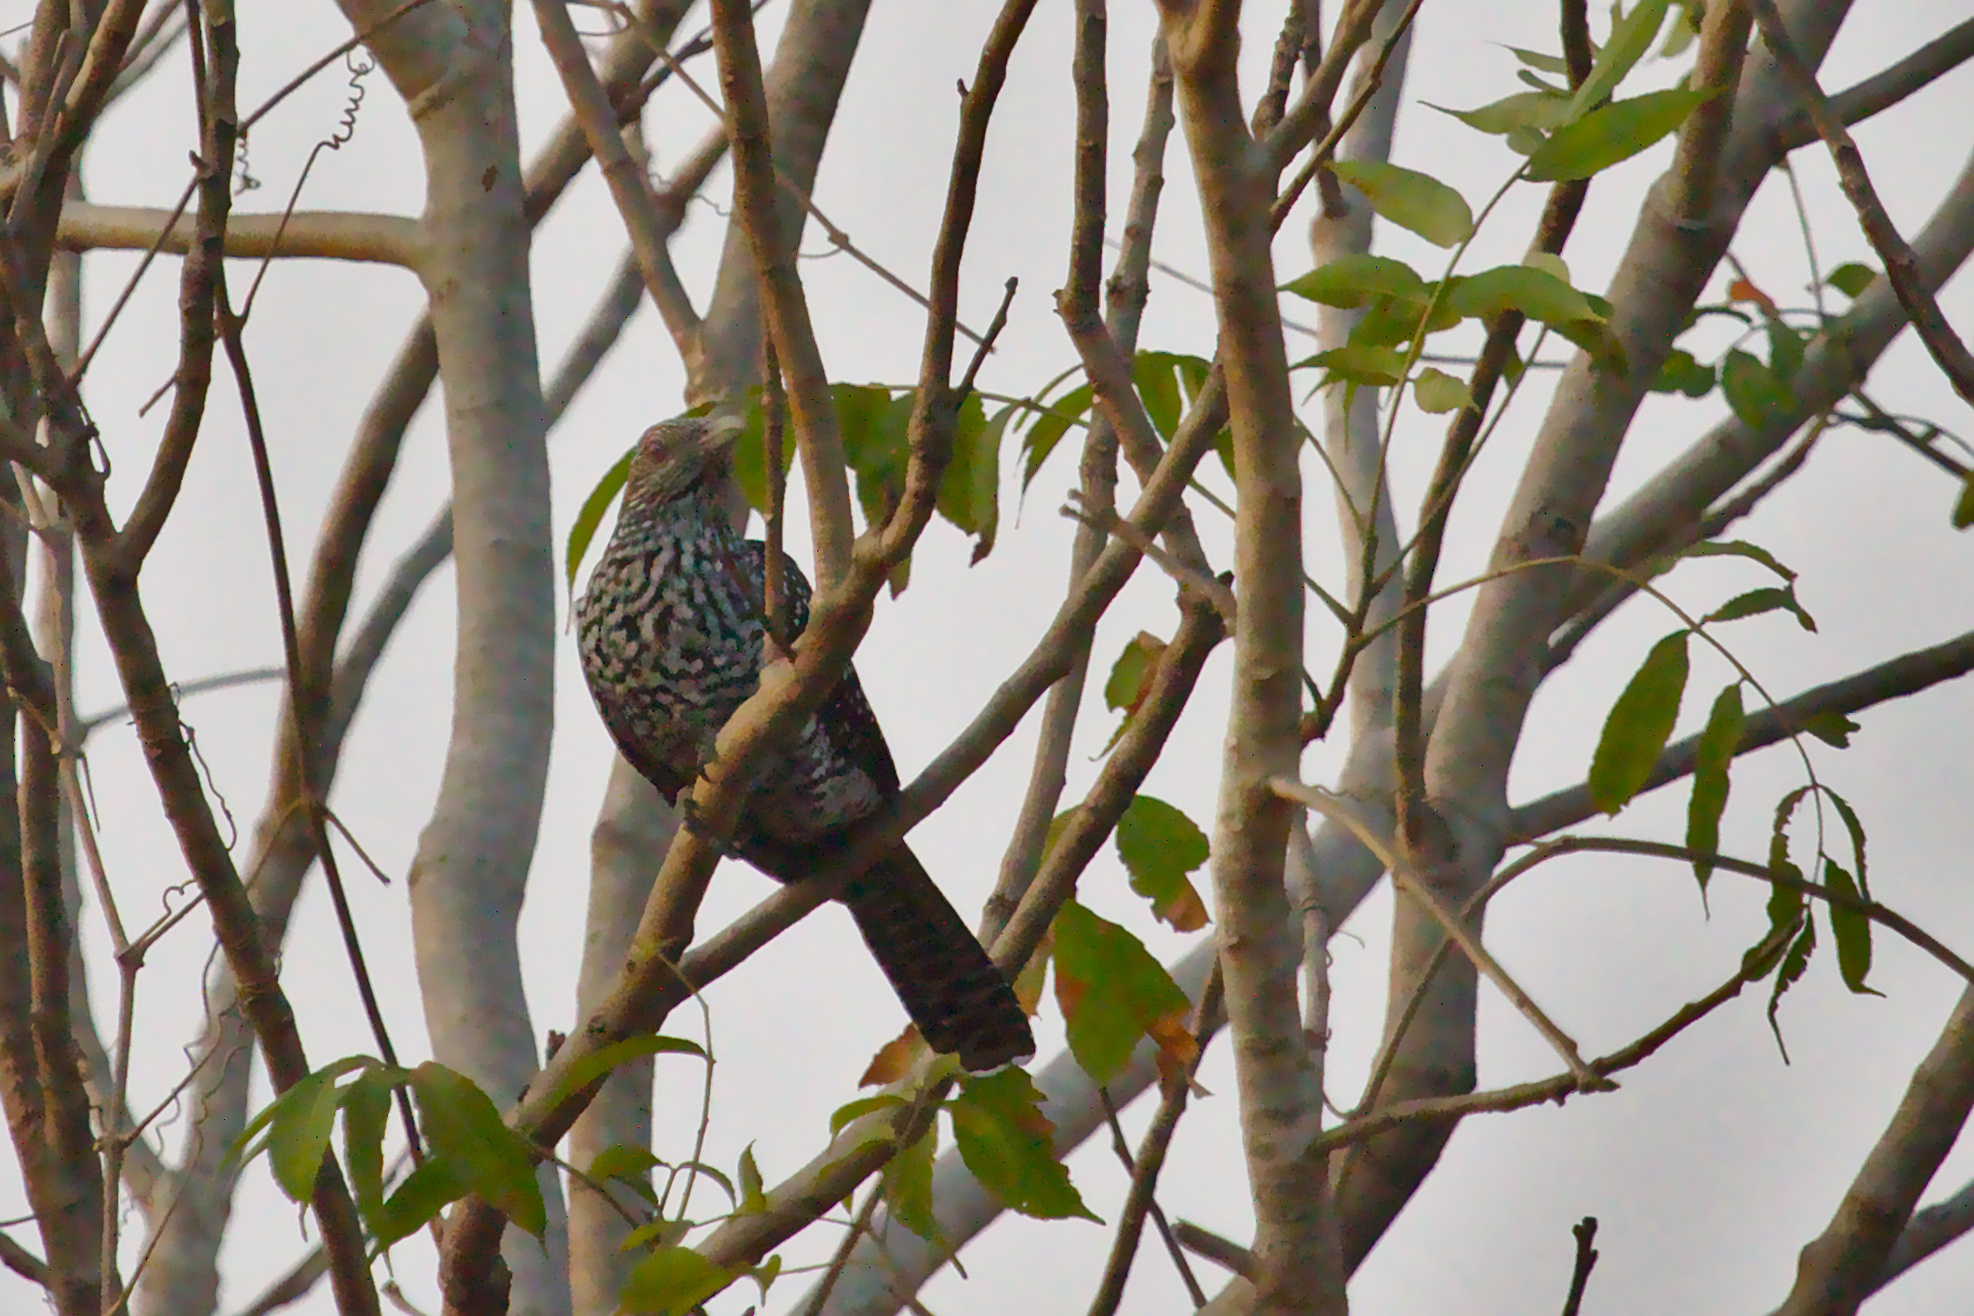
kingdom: Animalia
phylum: Chordata
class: Aves
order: Cuculiformes
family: Cuculidae
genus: Eudynamys
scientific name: Eudynamys scolopaceus
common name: Asian koel
